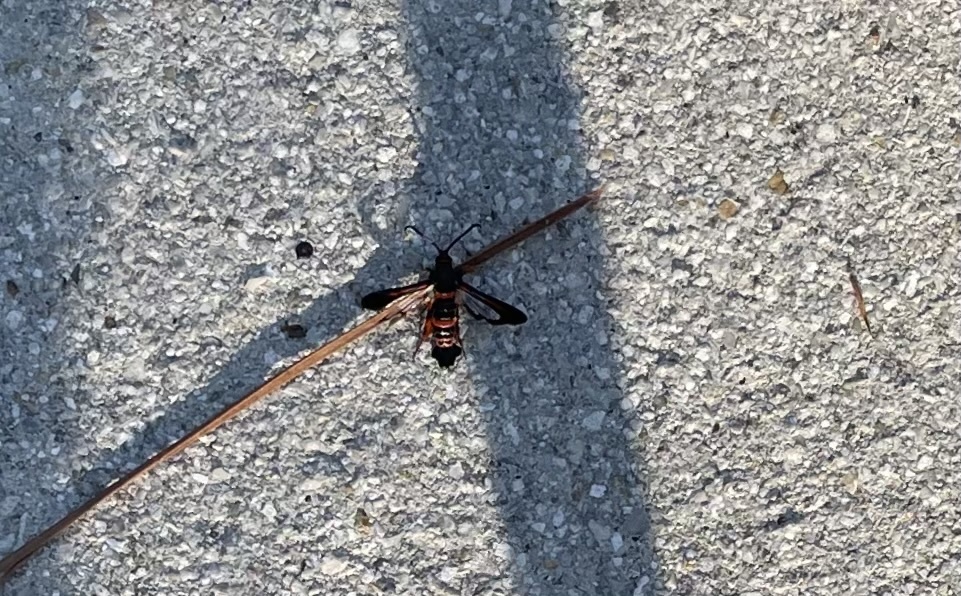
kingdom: Animalia
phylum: Arthropoda
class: Insecta
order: Lepidoptera
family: Sesiidae
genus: Synanthedon
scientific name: Synanthedon sapygaeformis
